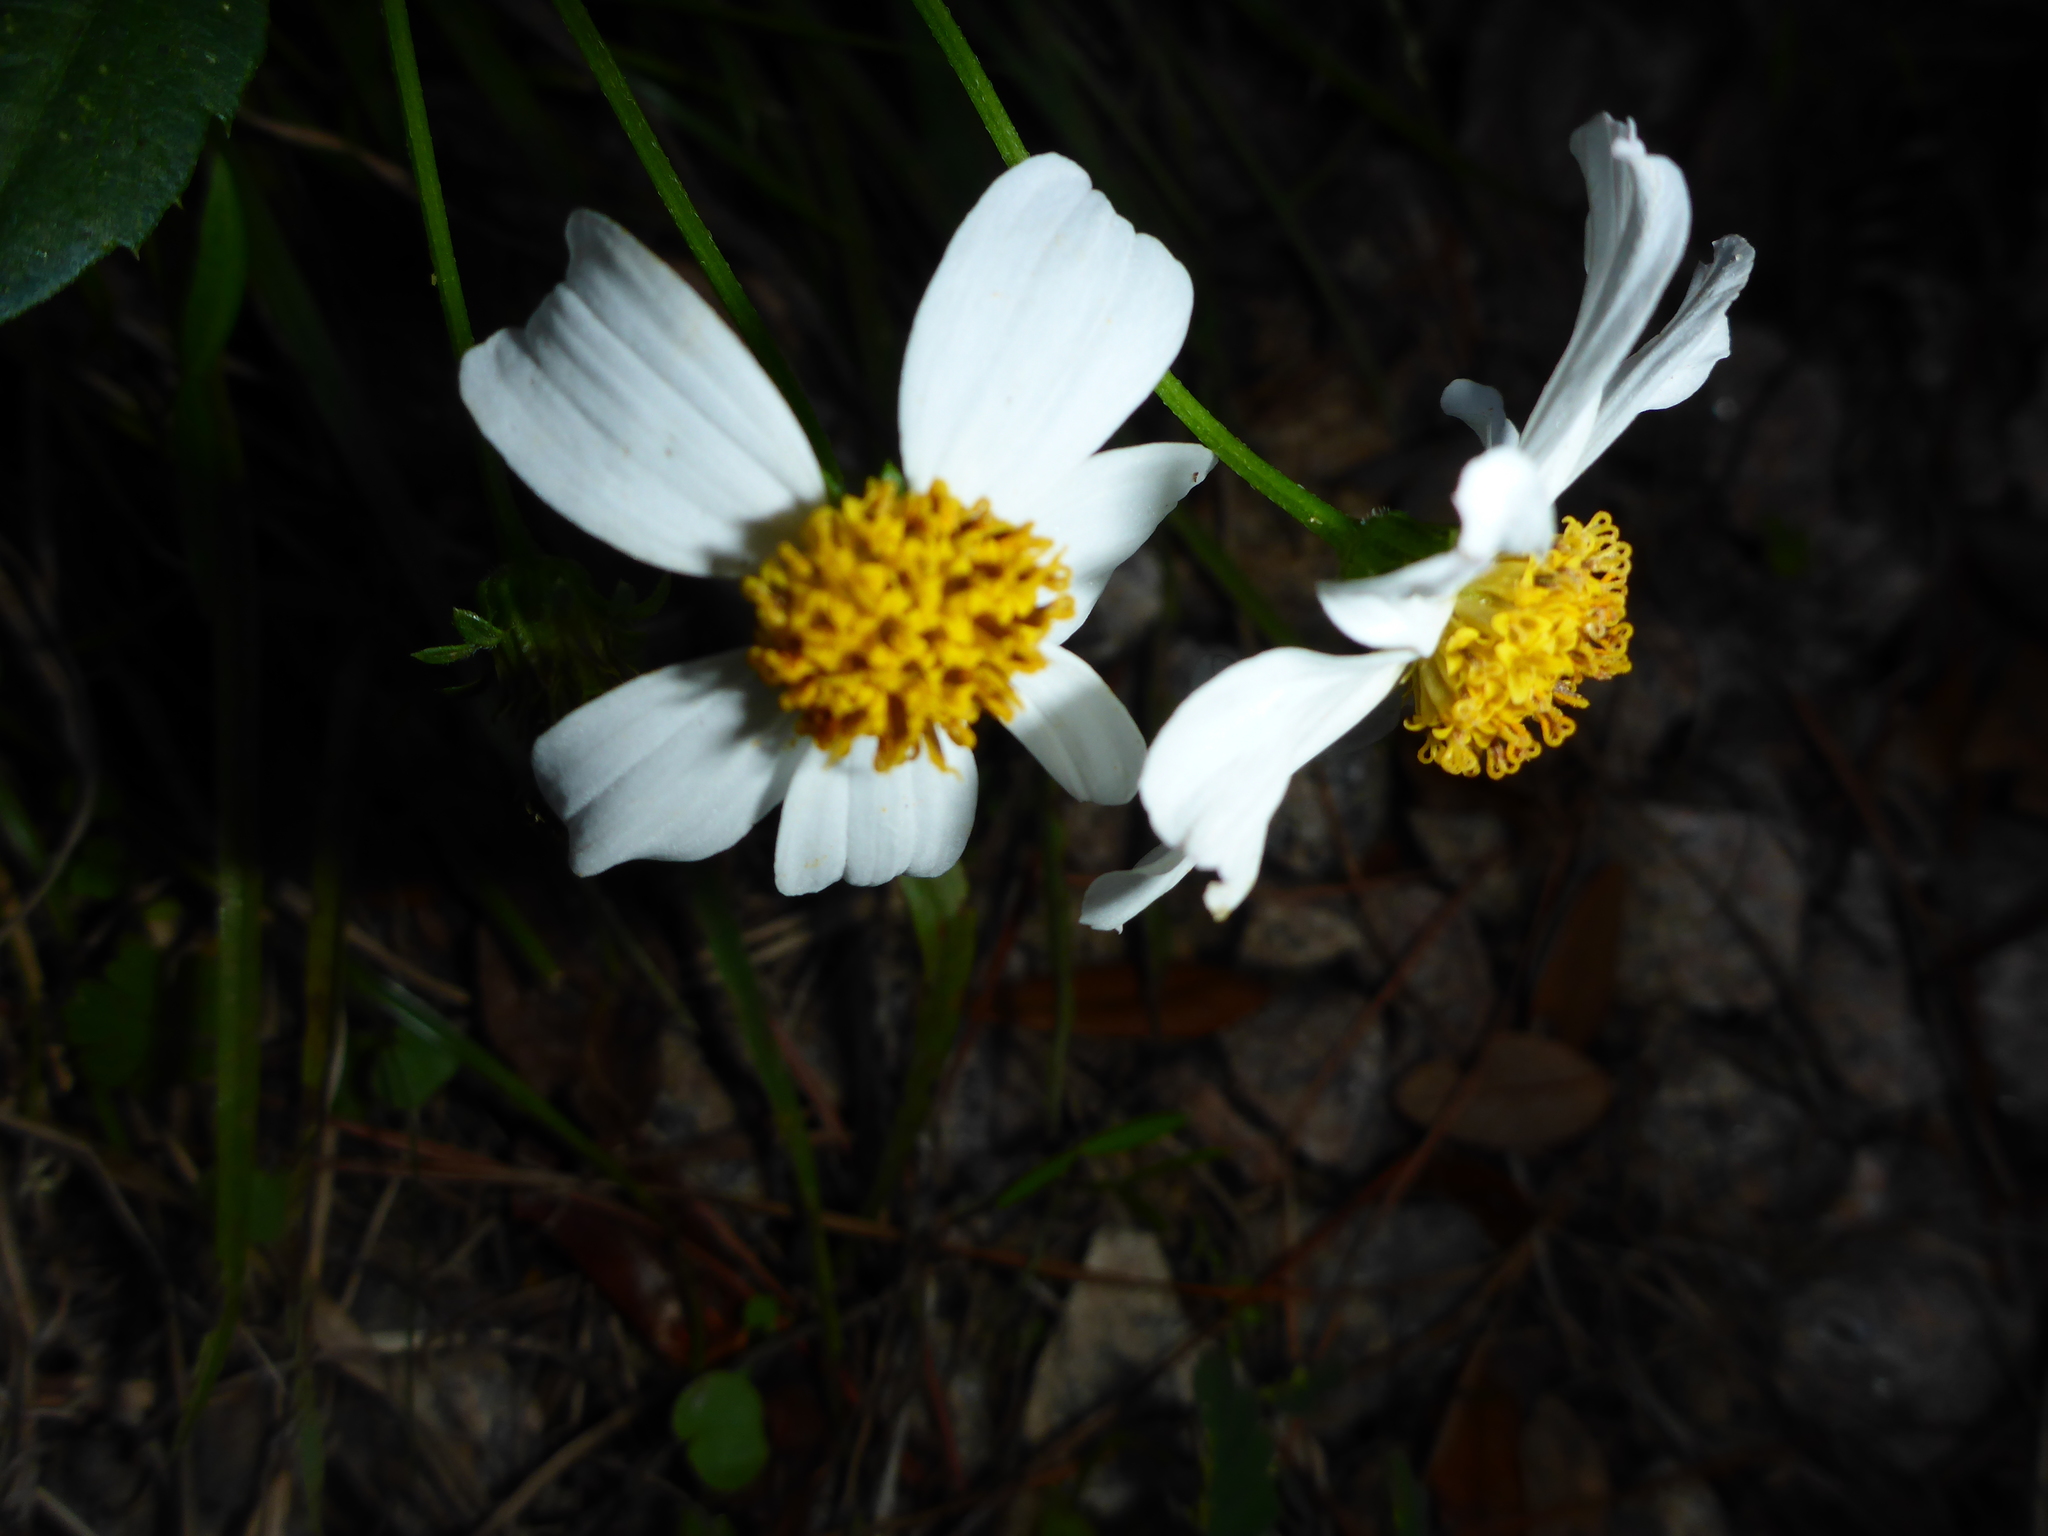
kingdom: Plantae
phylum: Tracheophyta
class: Magnoliopsida
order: Asterales
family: Asteraceae
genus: Bidens
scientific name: Bidens alba
